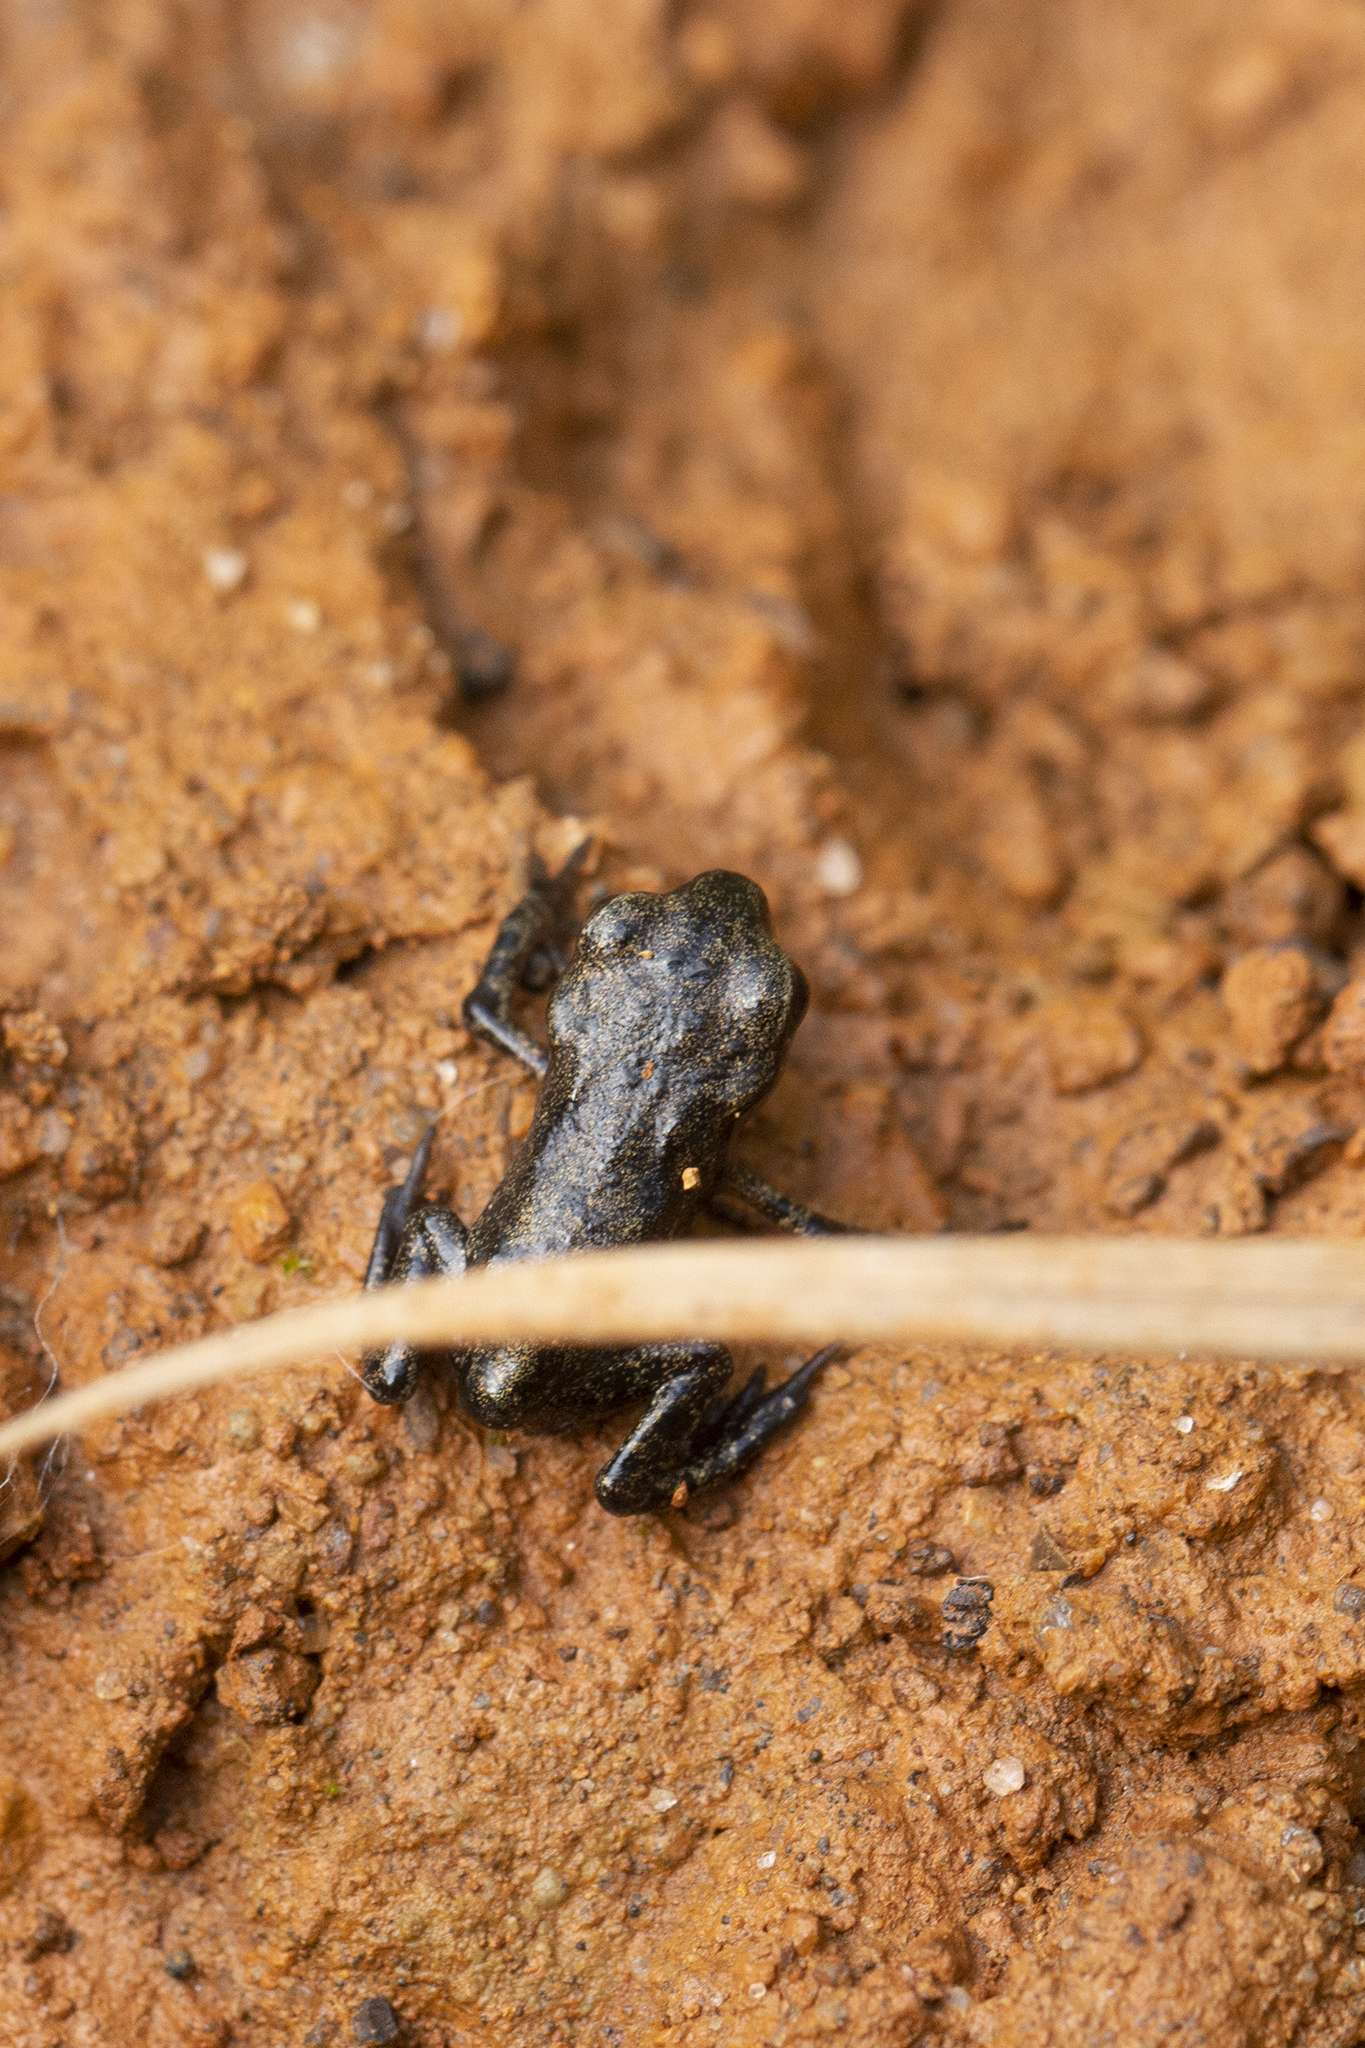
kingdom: Animalia
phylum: Chordata
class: Amphibia
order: Anura
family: Bufonidae
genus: Bufo
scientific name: Bufo bufo
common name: Common toad
